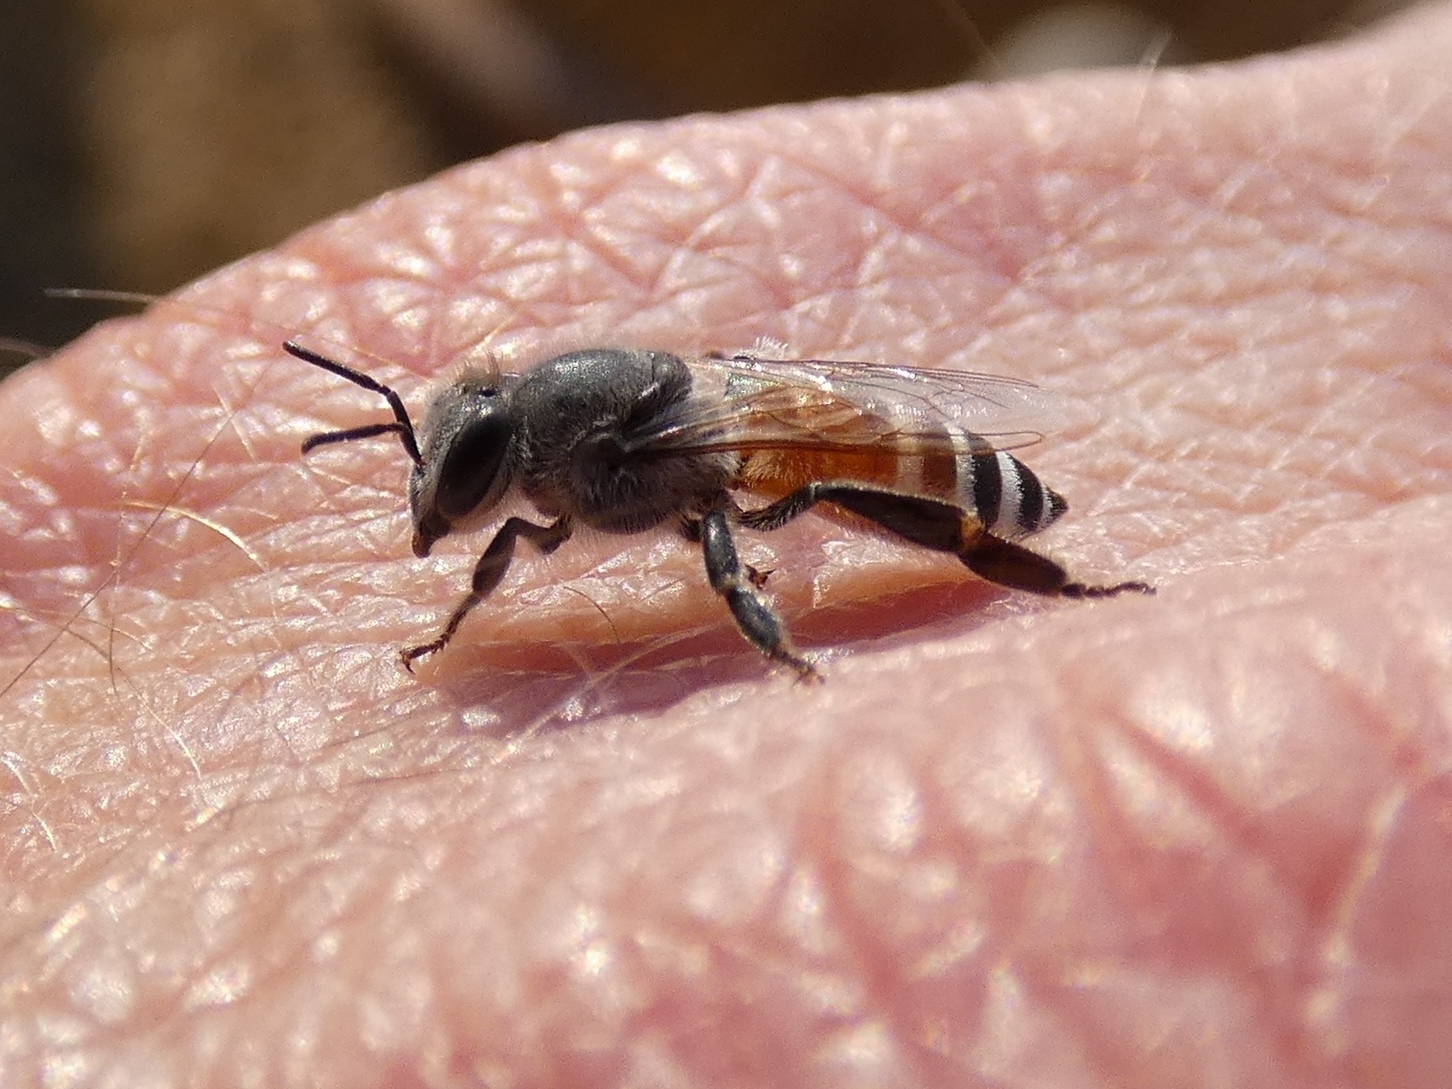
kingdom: Animalia
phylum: Arthropoda
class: Insecta
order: Hymenoptera
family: Apidae
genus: Apis
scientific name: Apis florea
